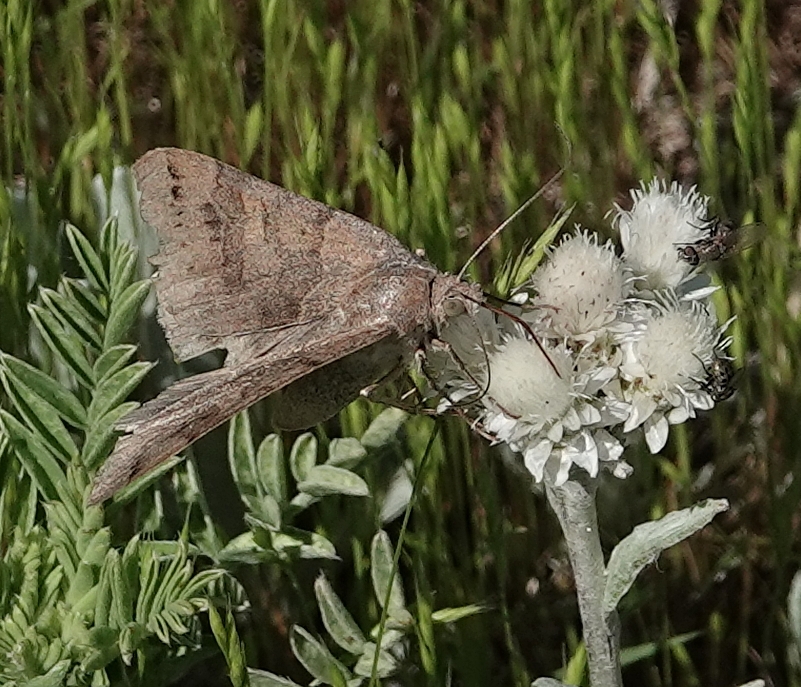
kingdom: Animalia
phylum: Arthropoda
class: Insecta
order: Lepidoptera
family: Erebidae
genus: Caenurgina
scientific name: Caenurgina erechtea
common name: Forage looper moth
